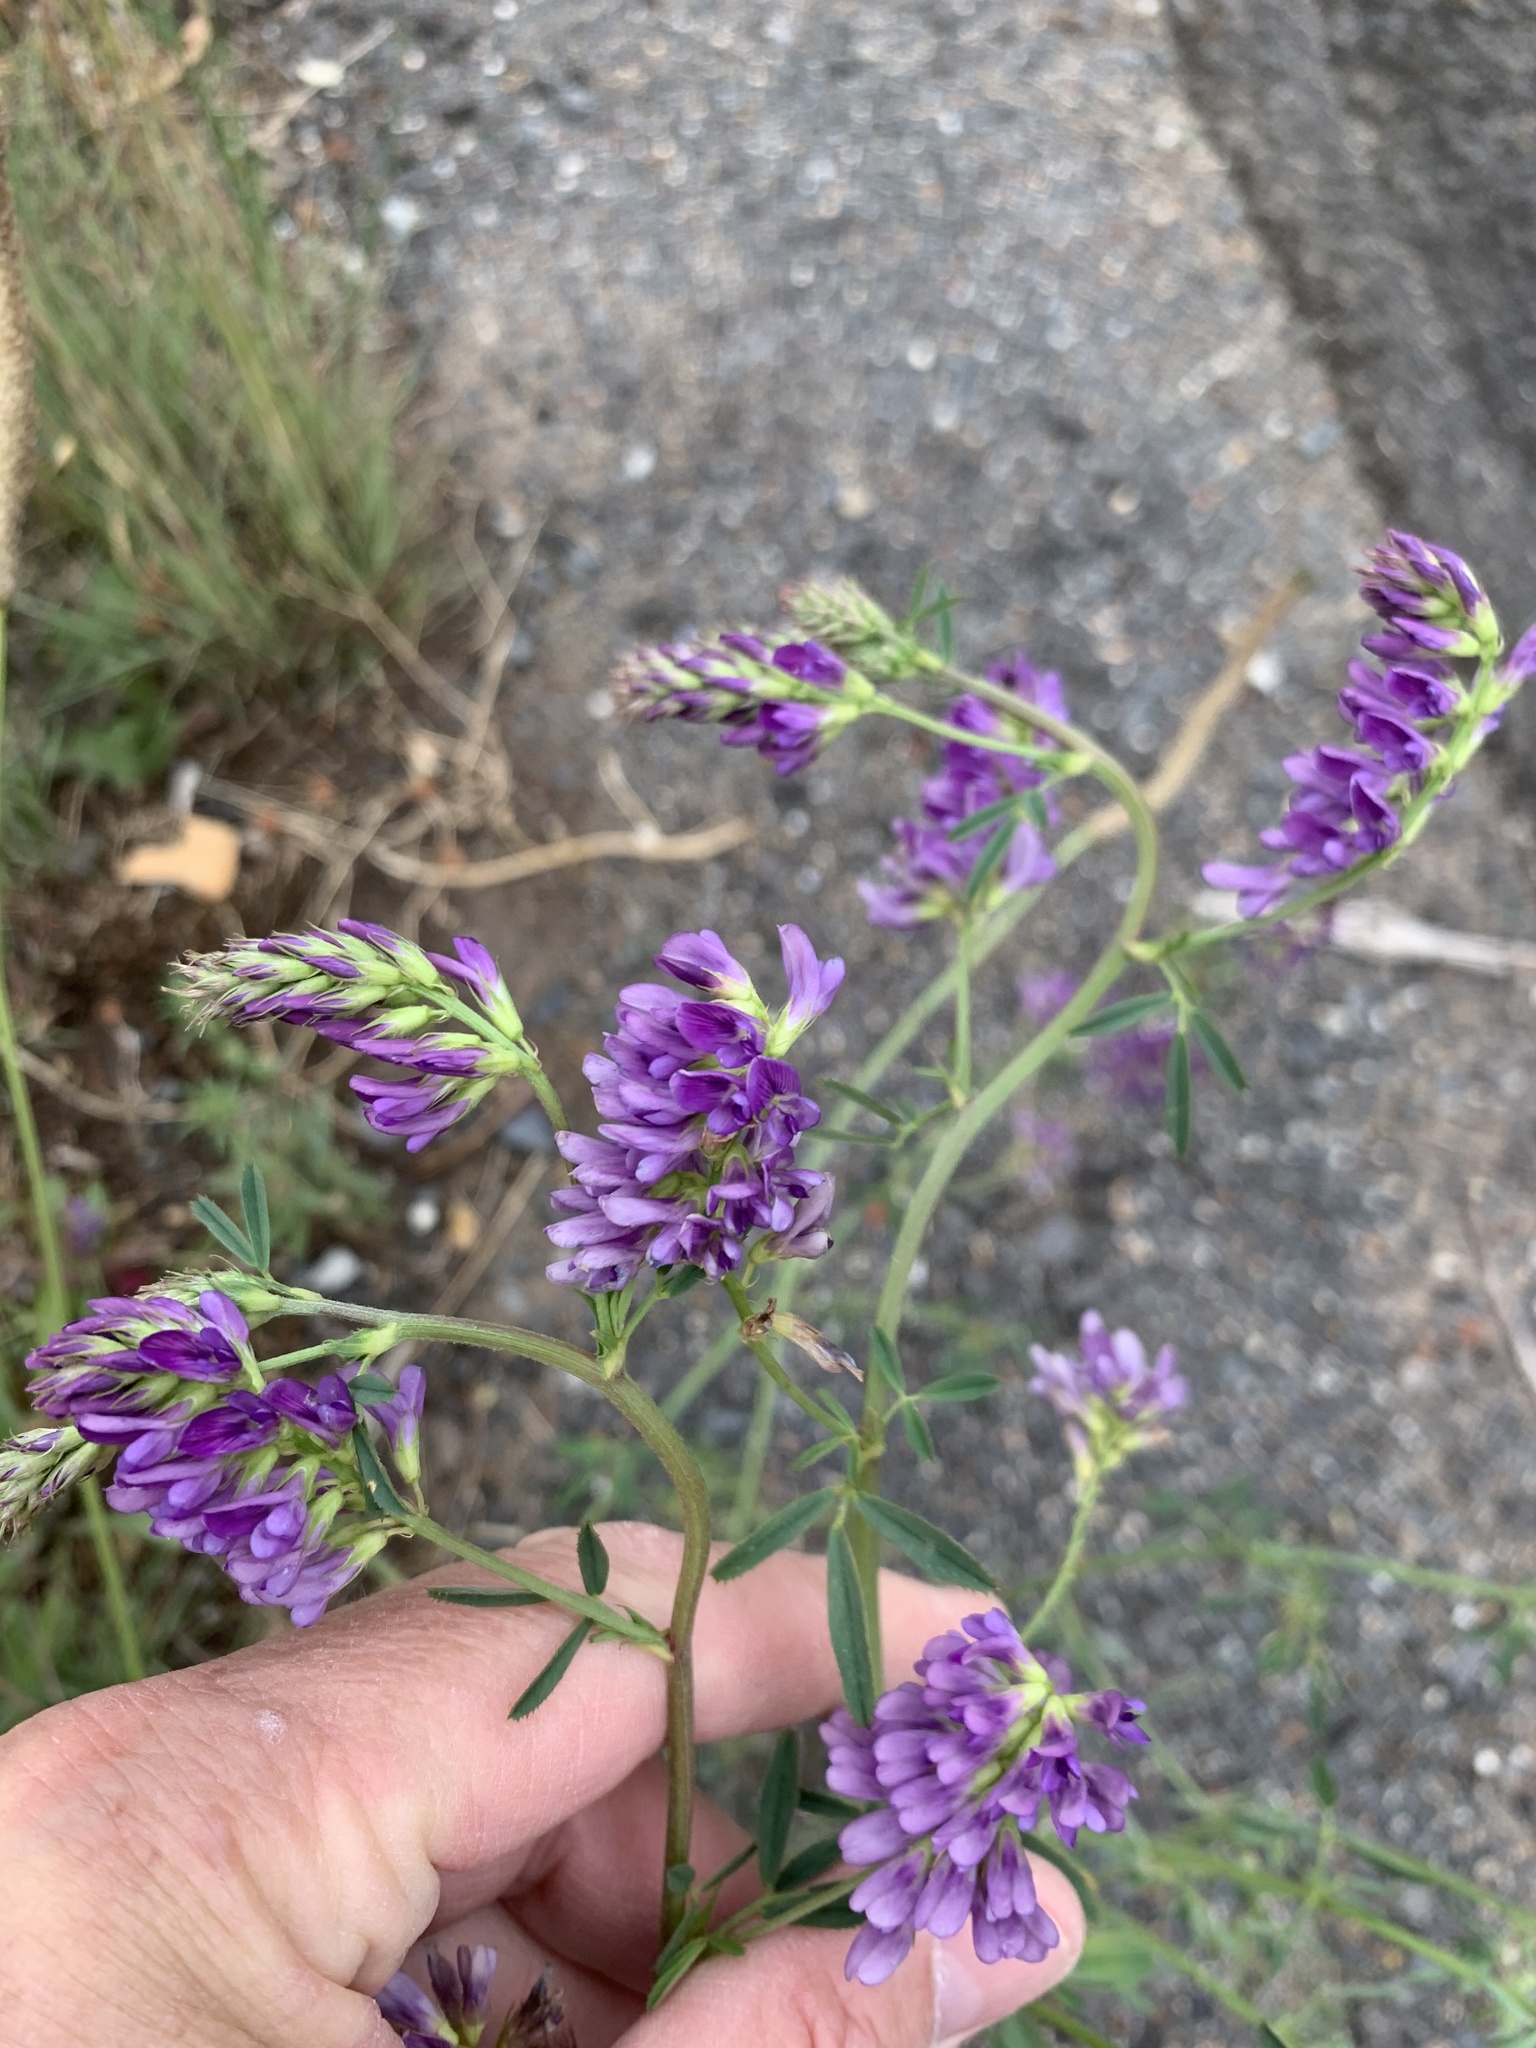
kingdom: Plantae
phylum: Tracheophyta
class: Magnoliopsida
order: Fabales
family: Fabaceae
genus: Medicago
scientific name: Medicago sativa
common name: Alfalfa
